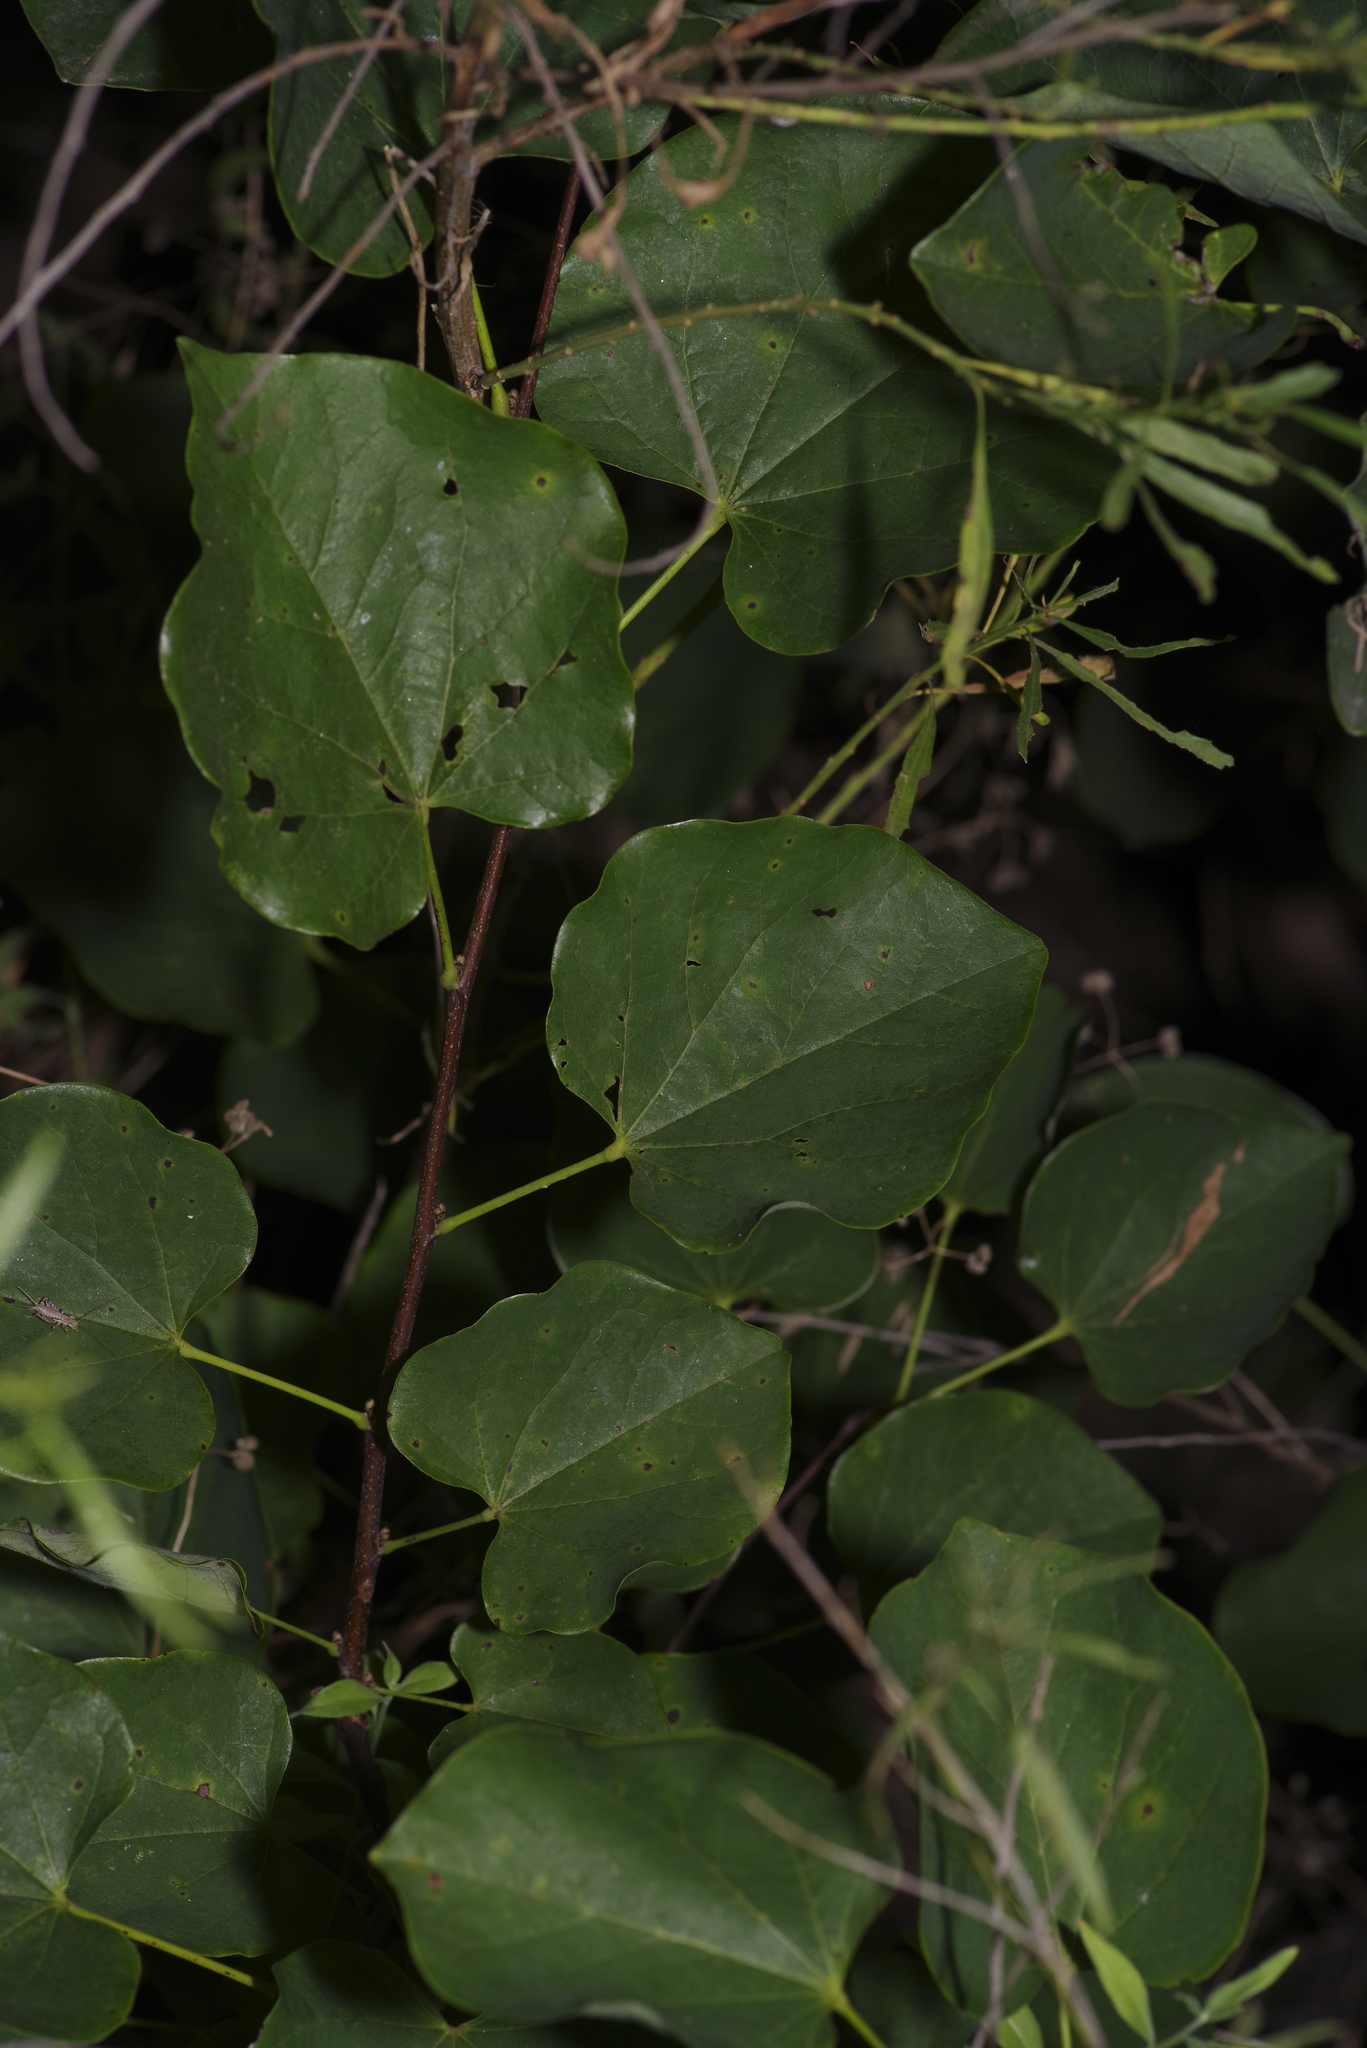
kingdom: Plantae
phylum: Tracheophyta
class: Magnoliopsida
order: Fabales
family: Fabaceae
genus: Cercis
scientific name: Cercis canadensis
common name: Eastern redbud
